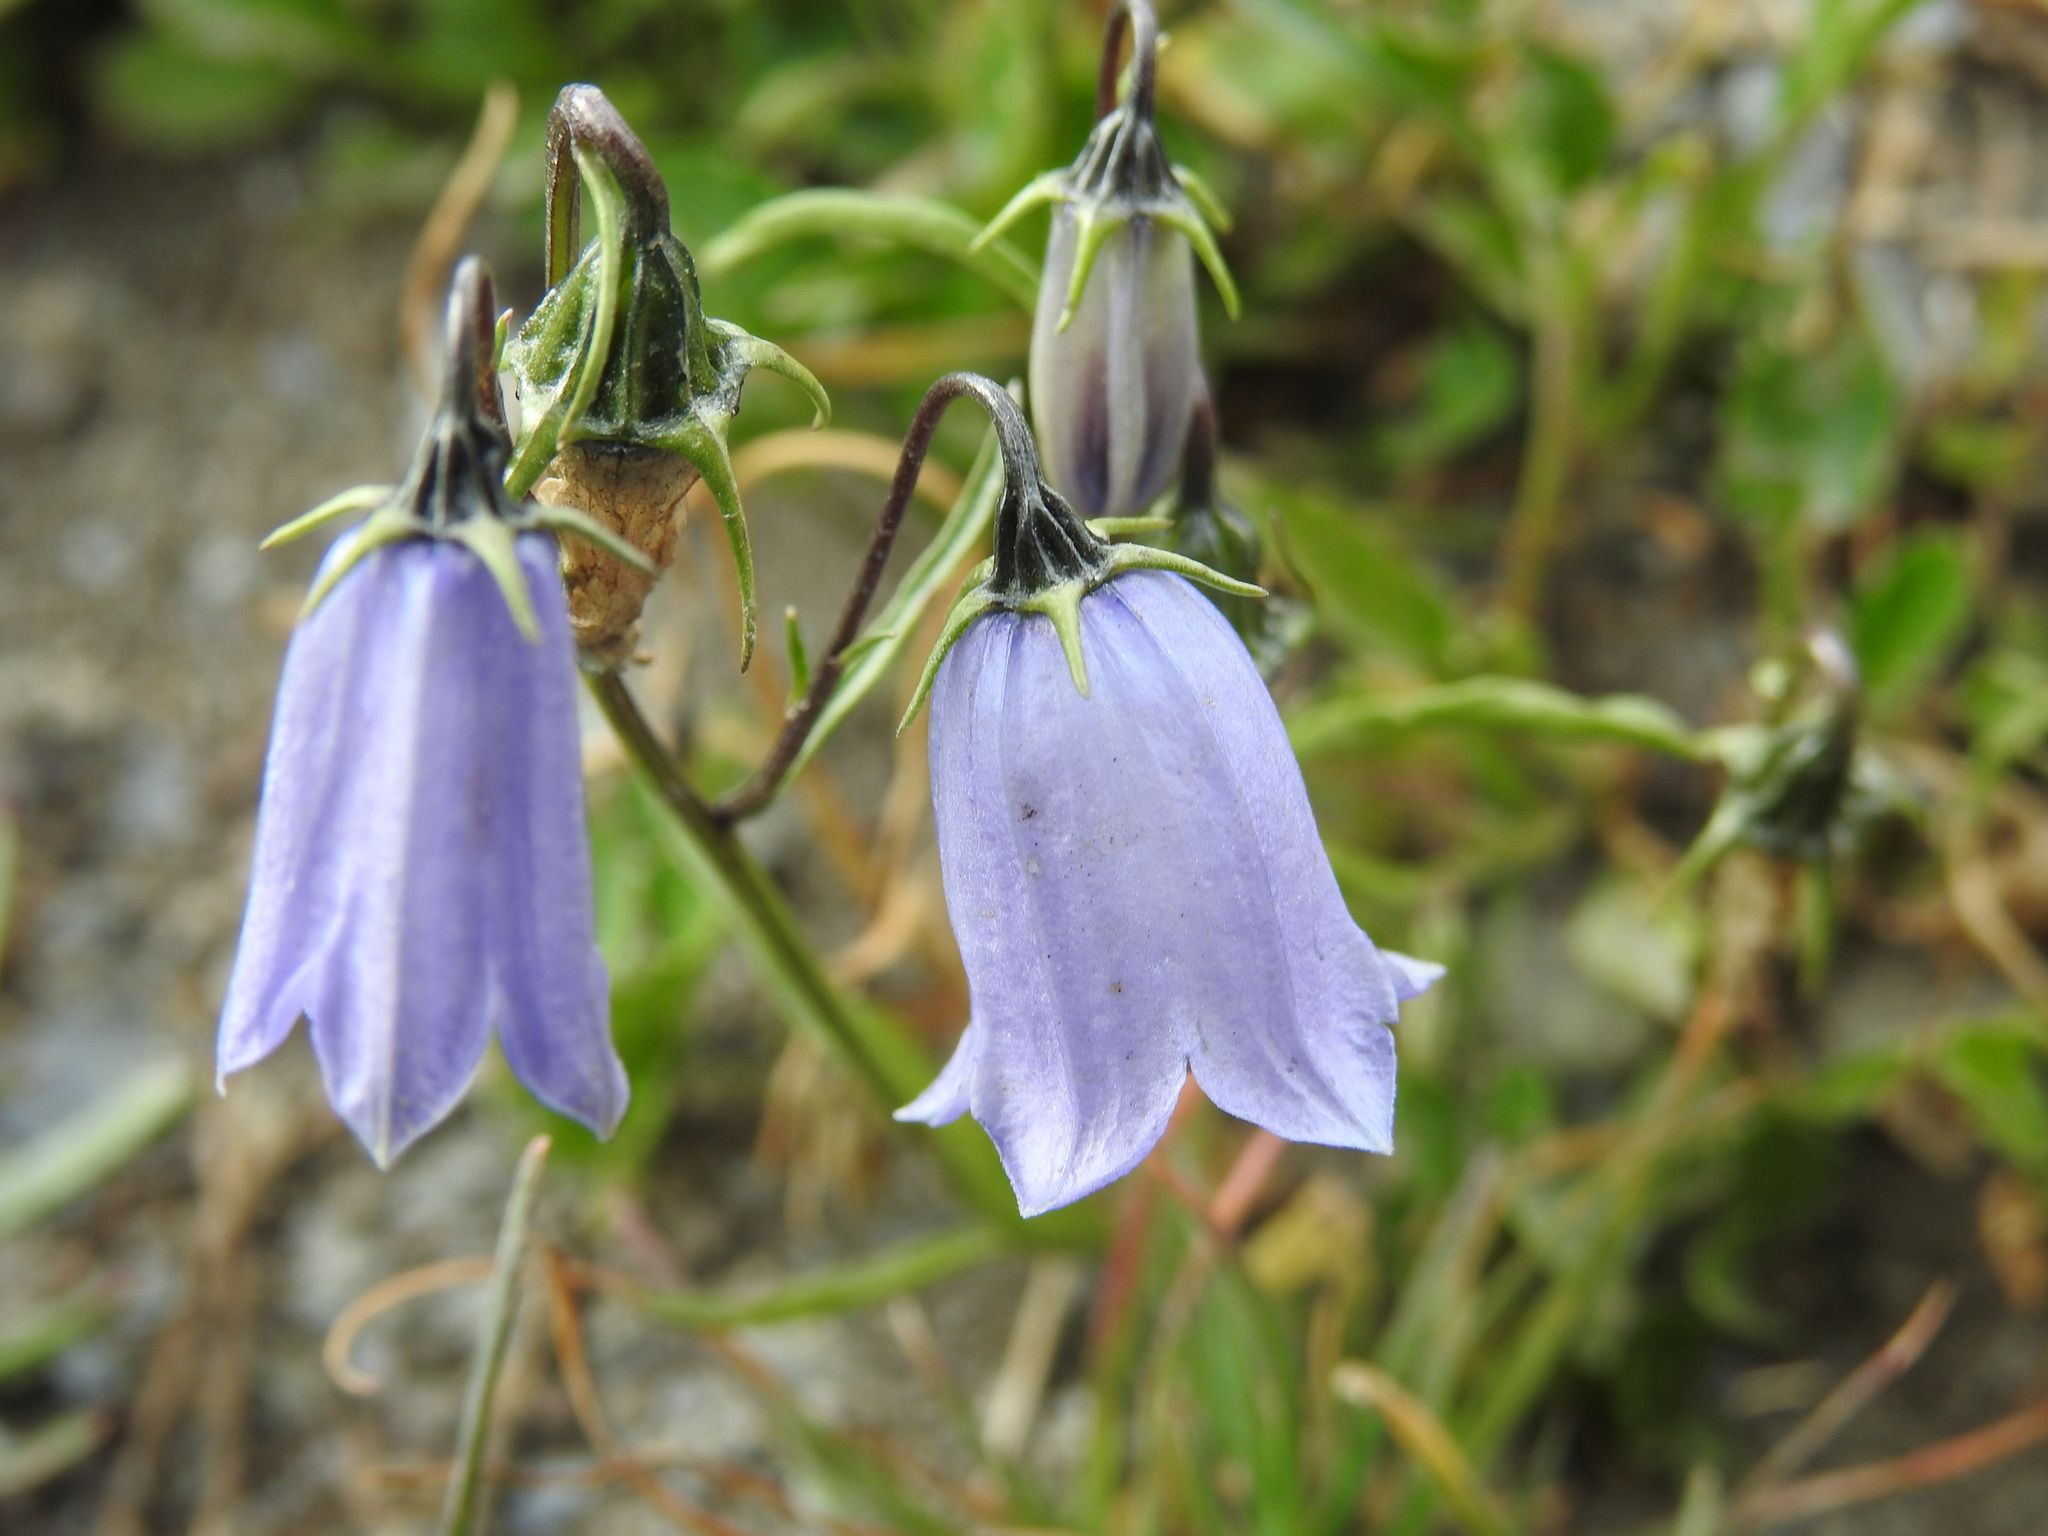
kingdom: Plantae
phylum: Tracheophyta
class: Magnoliopsida
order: Asterales
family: Campanulaceae
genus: Campanula
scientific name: Campanula cochleariifolia
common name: Fairies'-thimbles
